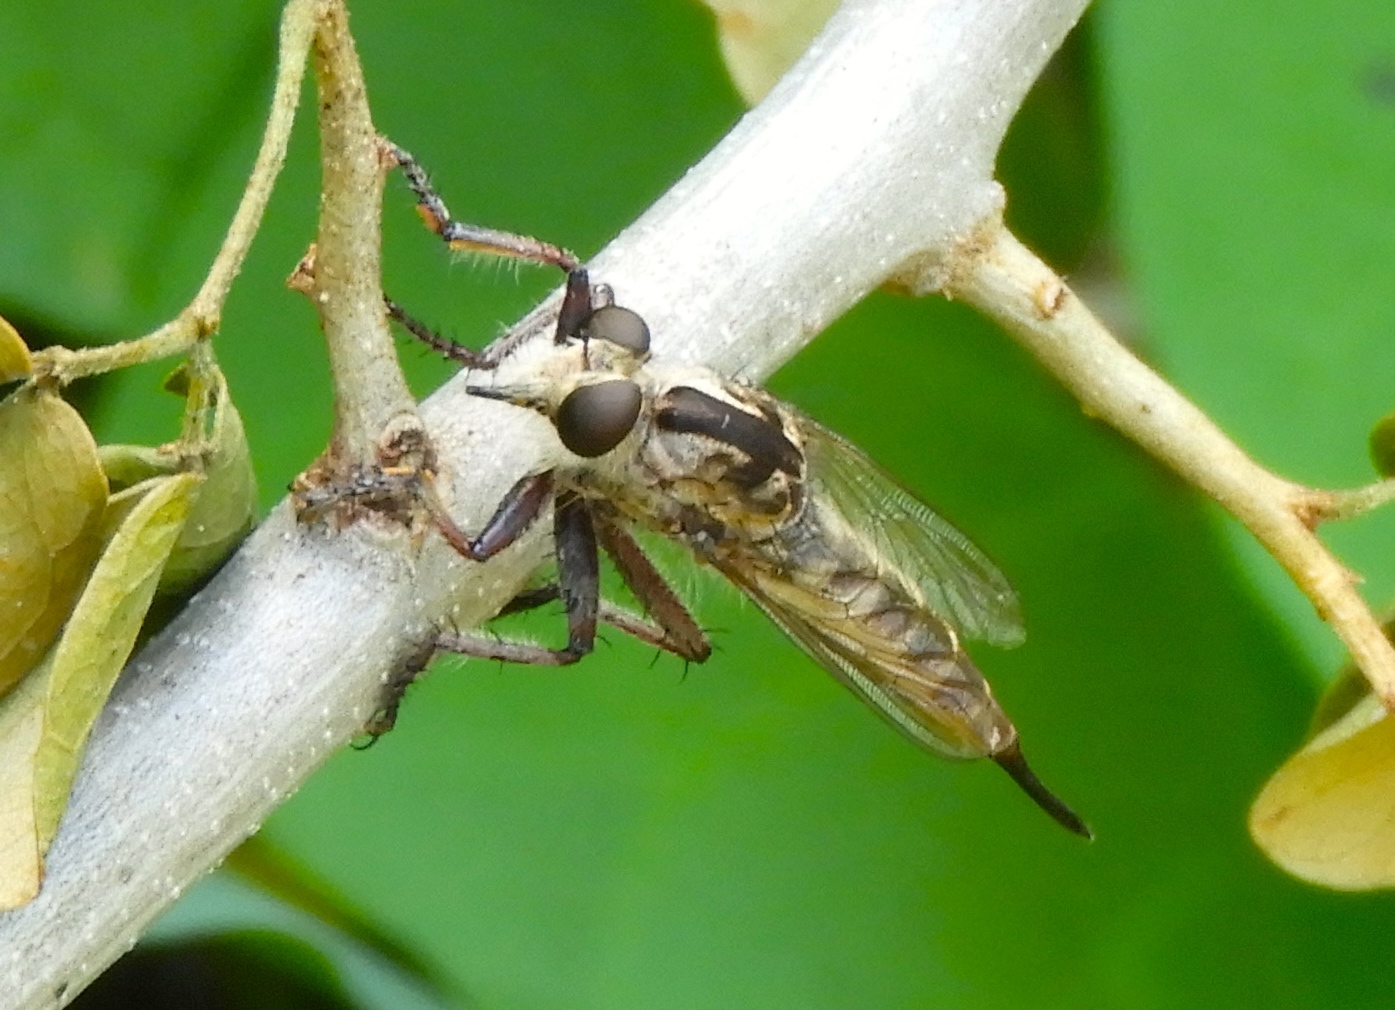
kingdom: Animalia
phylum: Arthropoda
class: Insecta
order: Diptera
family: Asilidae
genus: Efferia
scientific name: Efferia
